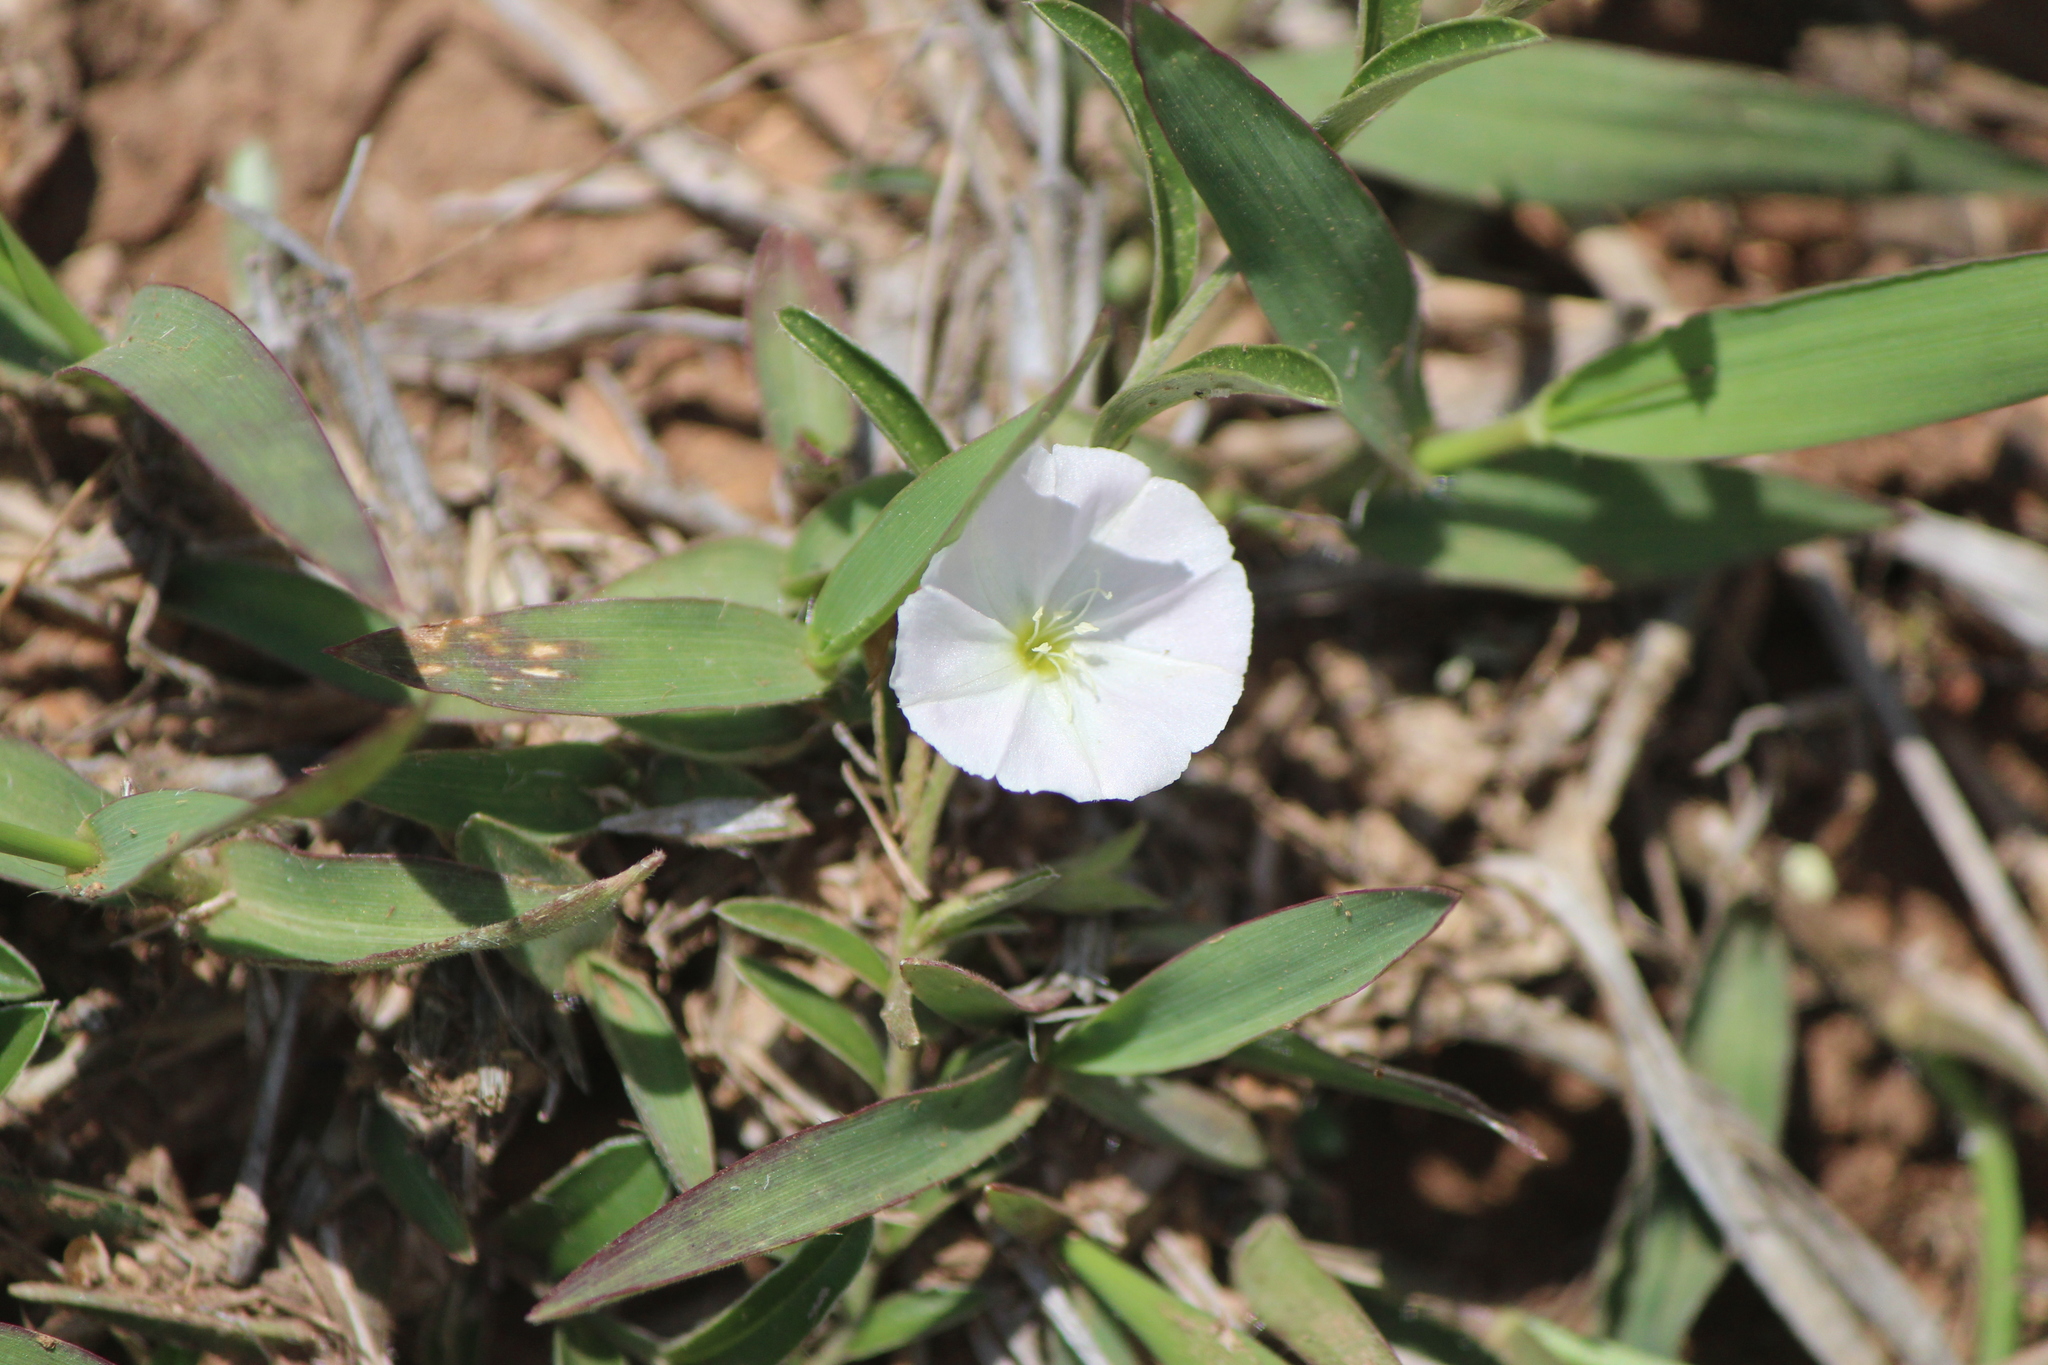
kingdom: Plantae
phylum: Tracheophyta
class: Magnoliopsida
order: Solanales
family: Convolvulaceae
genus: Evolvulus
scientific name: Evolvulus sericeus
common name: Blue dots
